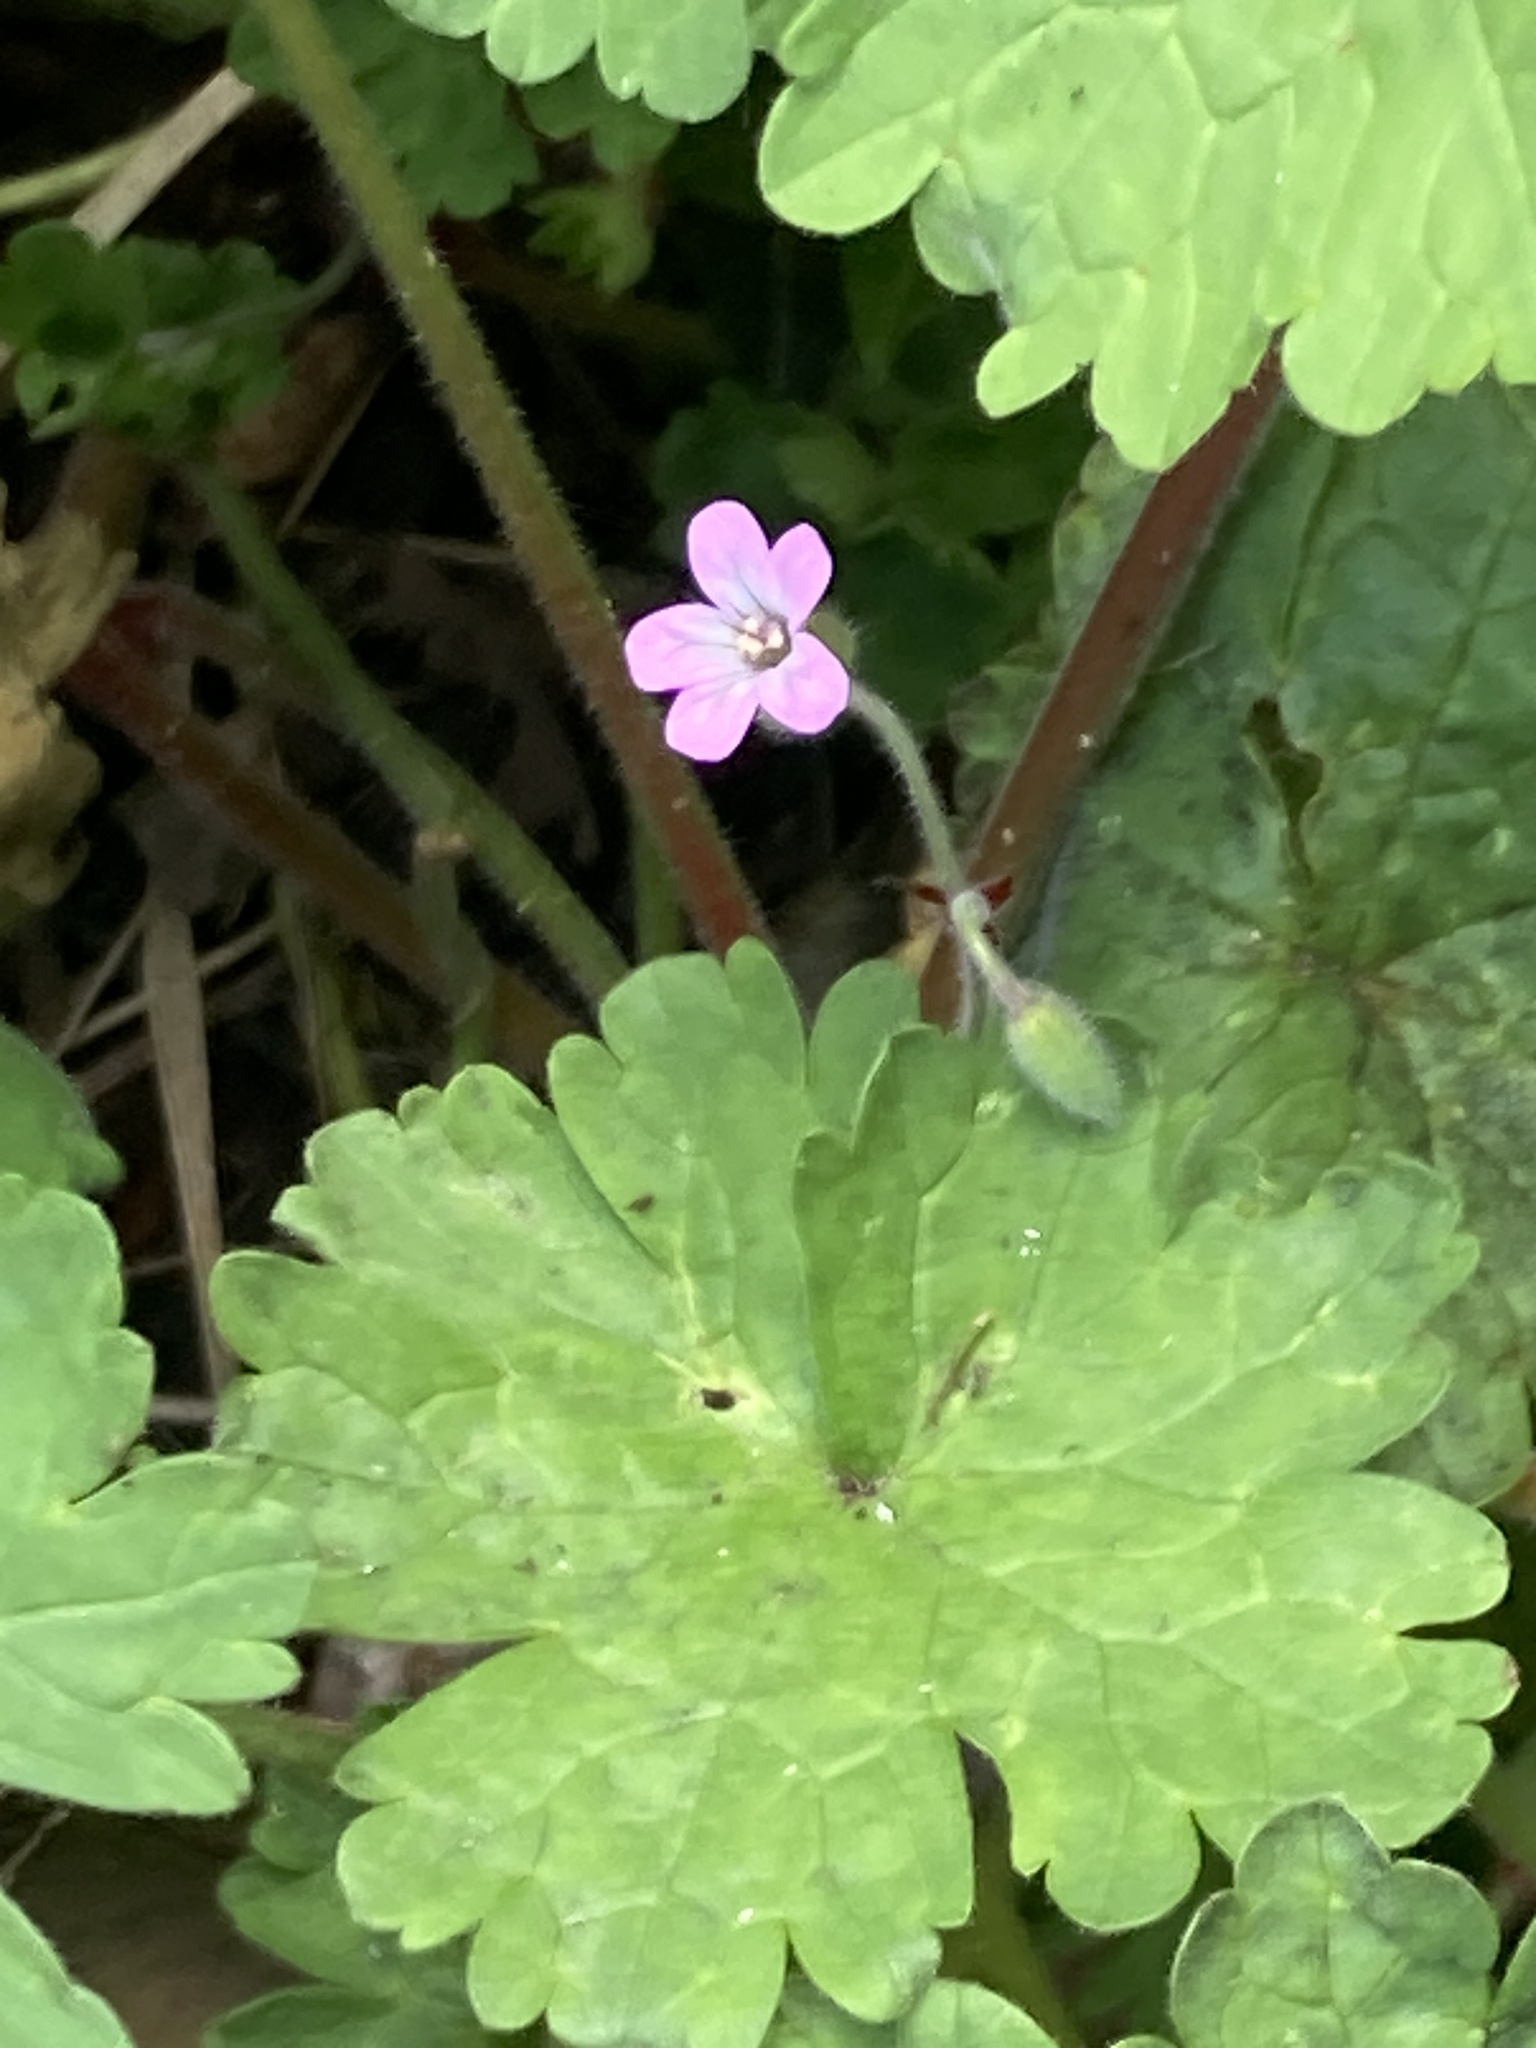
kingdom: Plantae
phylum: Tracheophyta
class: Magnoliopsida
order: Geraniales
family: Geraniaceae
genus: Geranium
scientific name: Geranium rotundifolium
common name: Round-leaved crane's-bill
